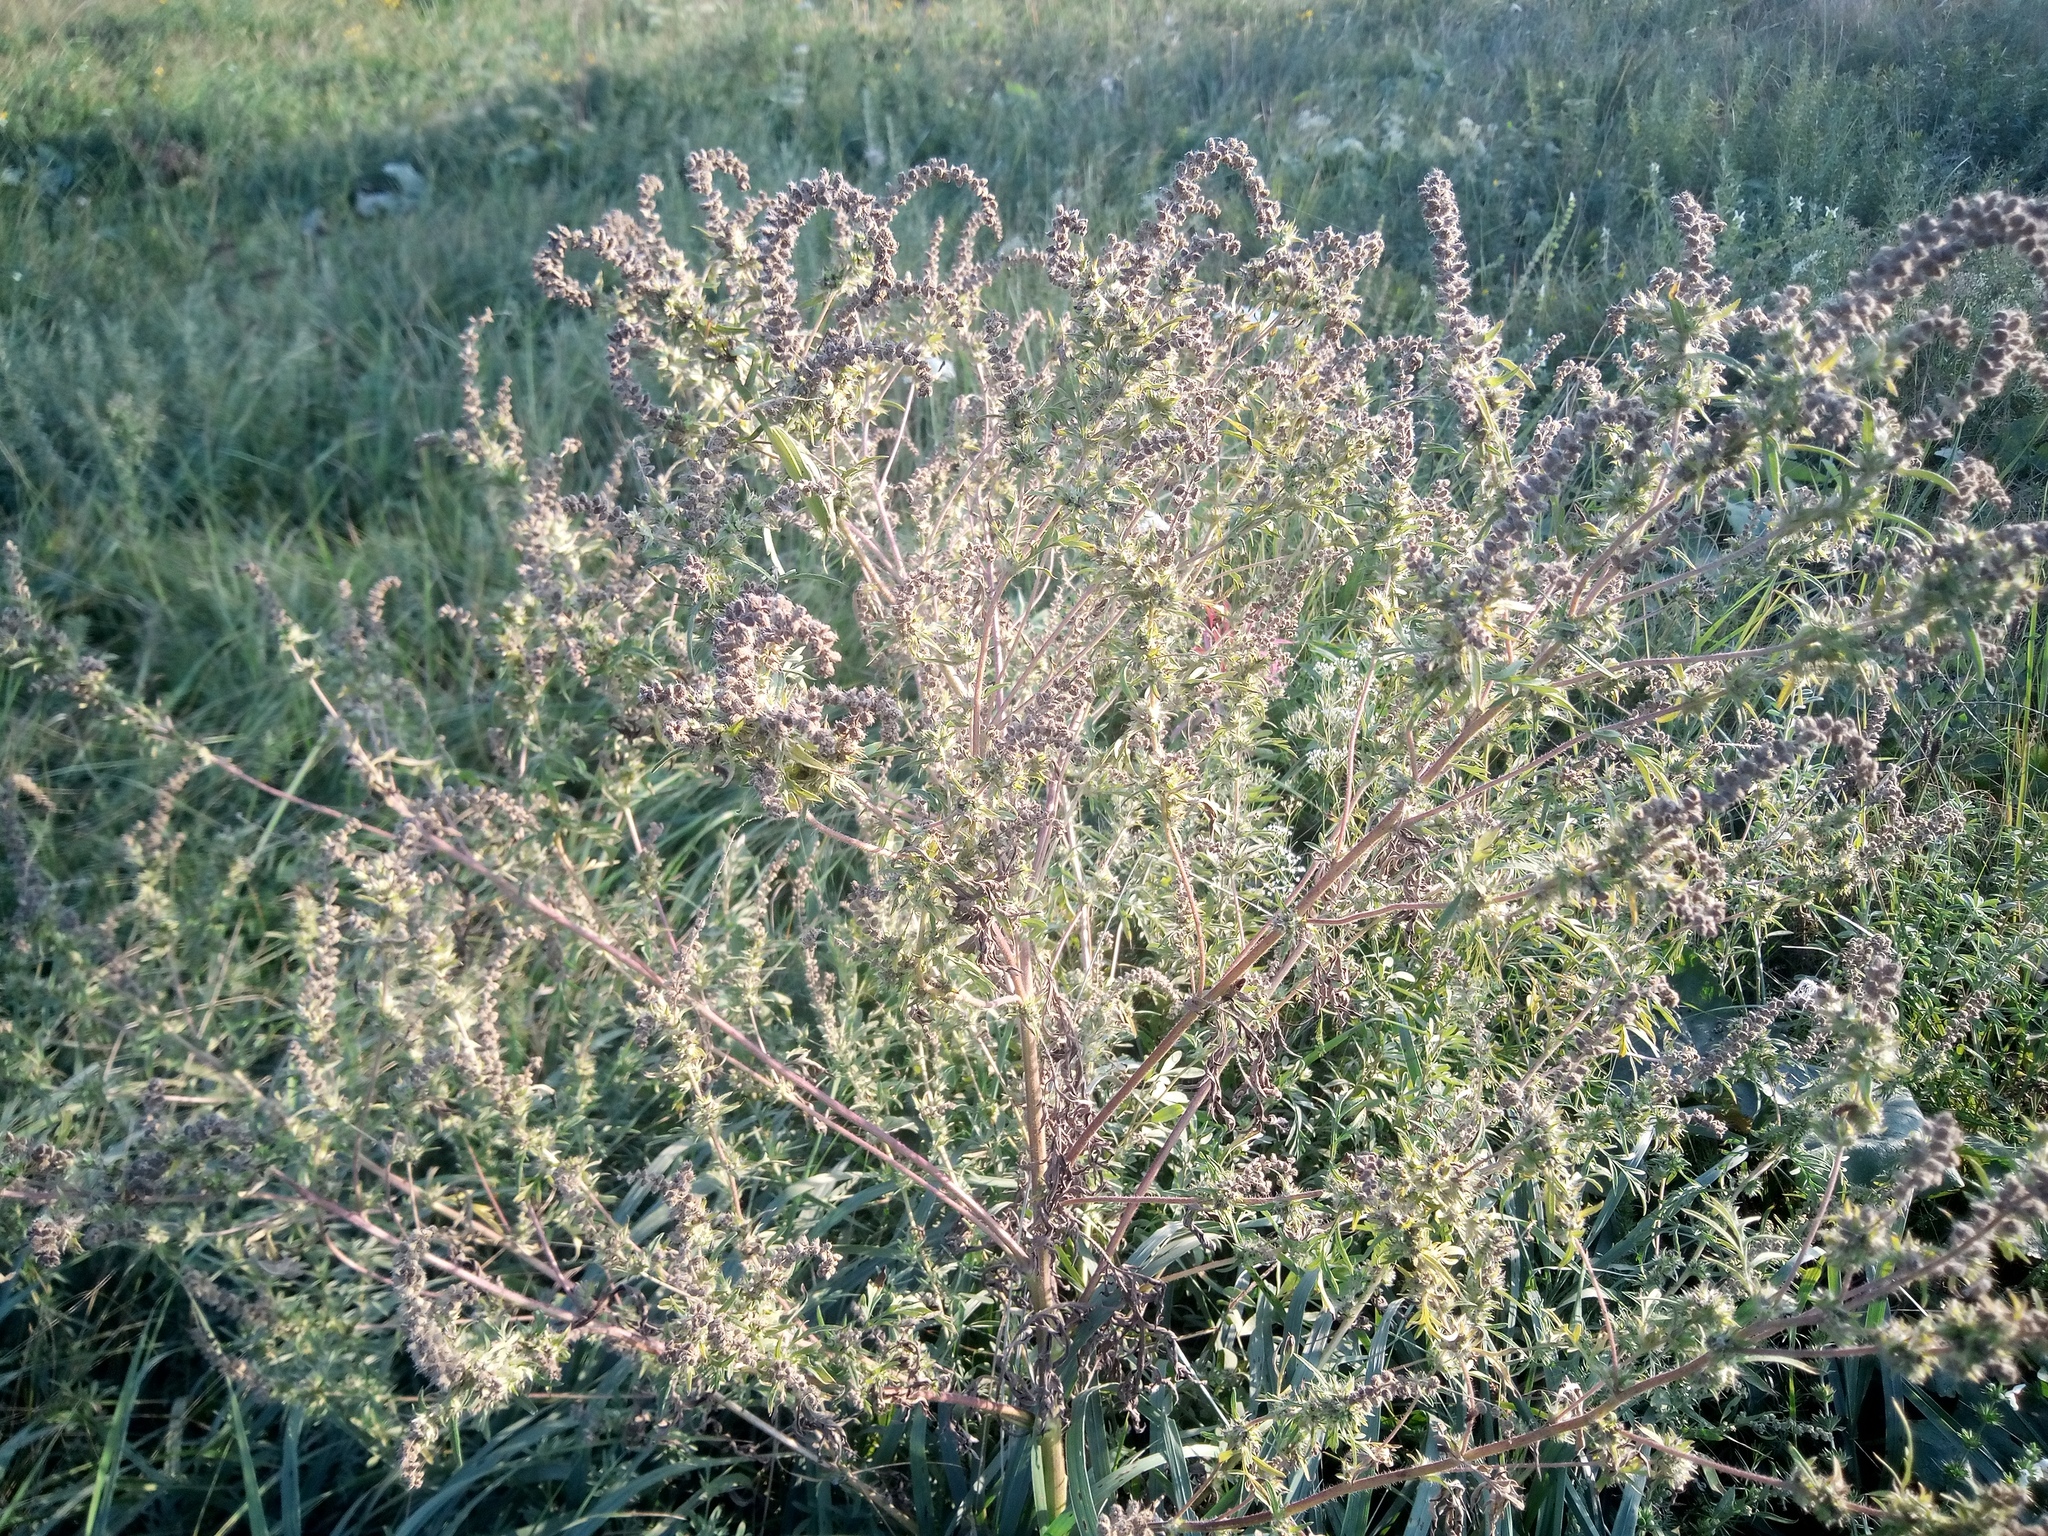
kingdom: Plantae
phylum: Tracheophyta
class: Magnoliopsida
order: Asterales
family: Asteraceae
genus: Ambrosia
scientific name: Ambrosia artemisiifolia
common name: Annual ragweed
